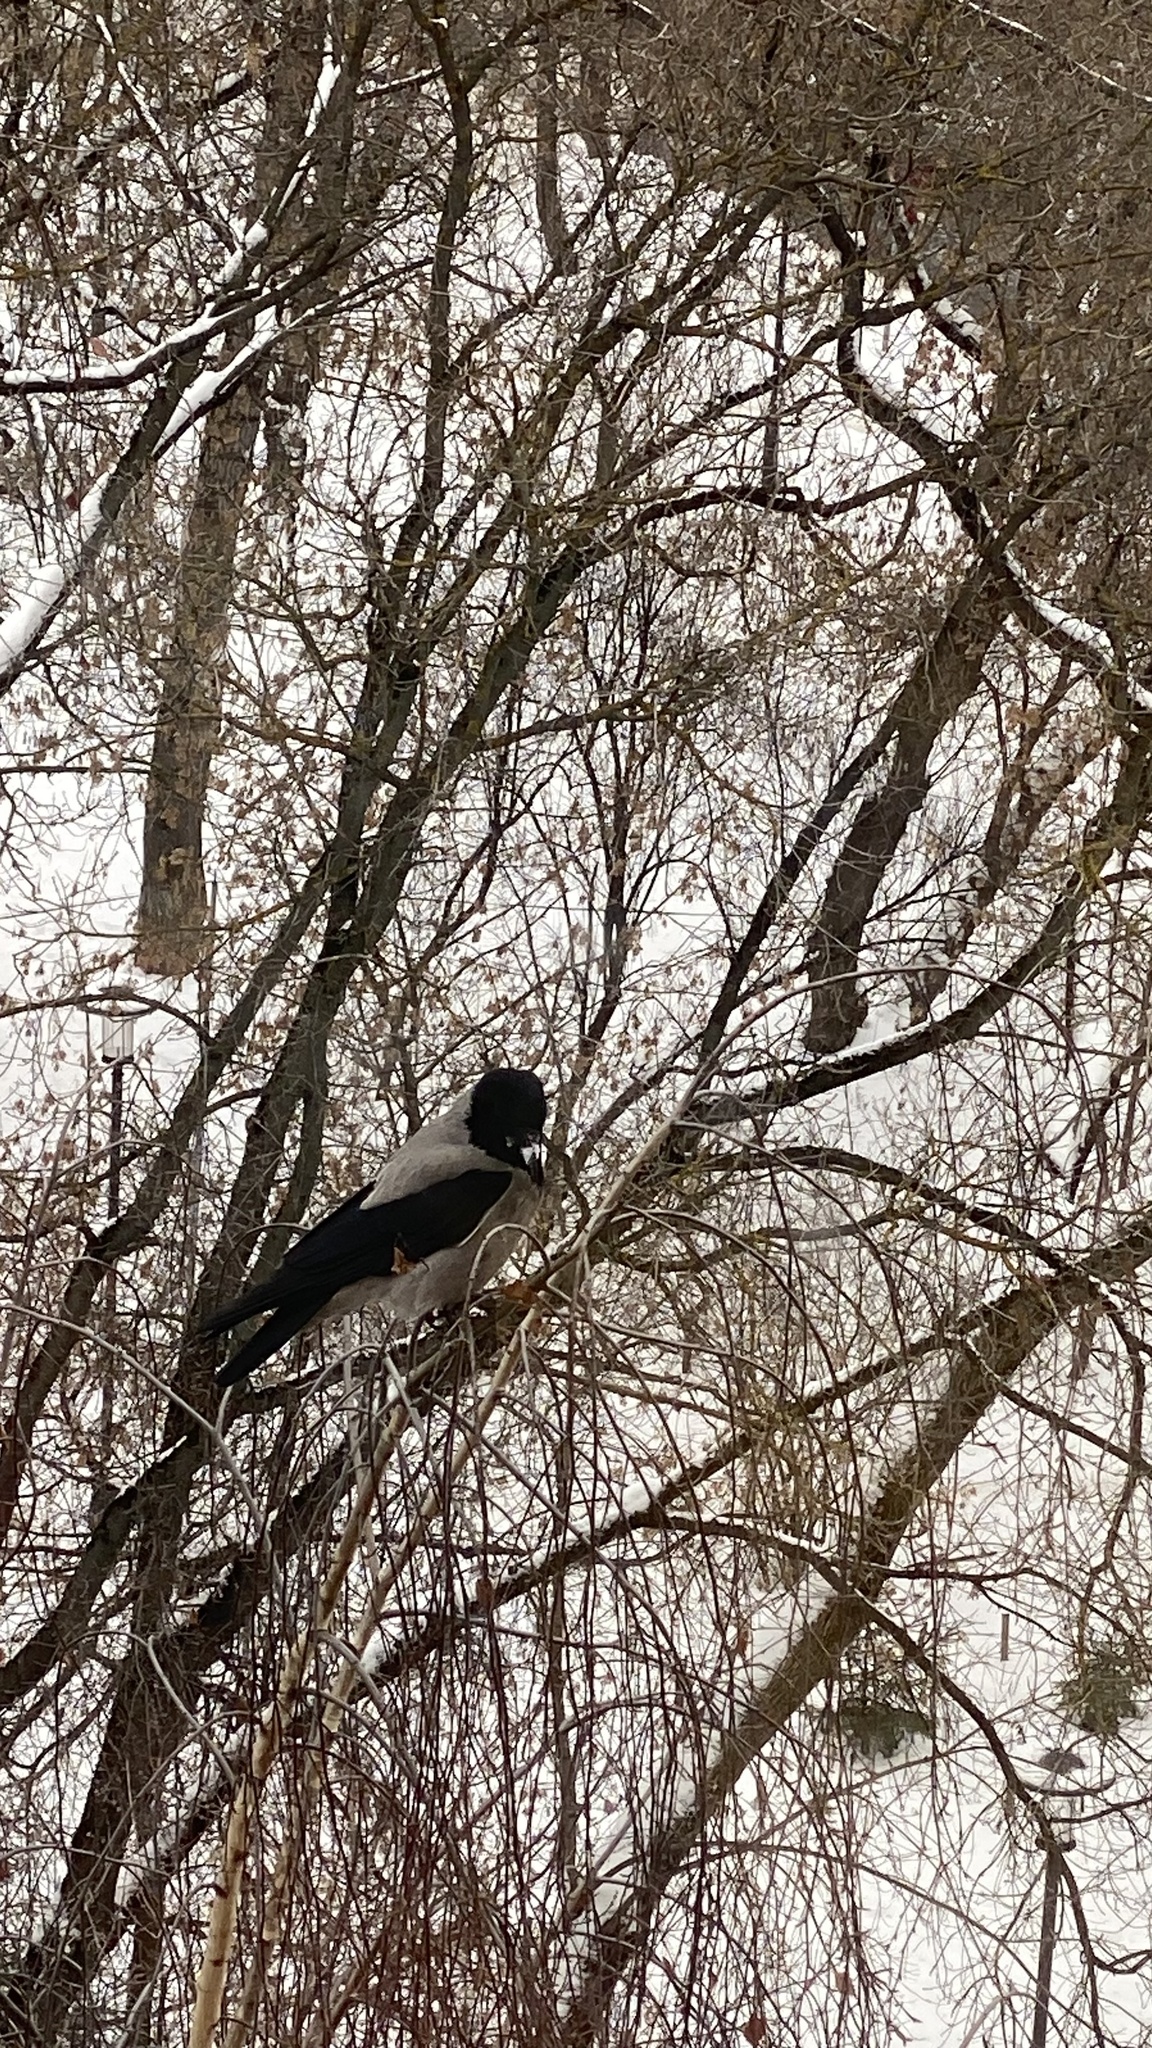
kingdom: Animalia
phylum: Chordata
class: Aves
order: Passeriformes
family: Corvidae
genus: Corvus
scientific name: Corvus cornix
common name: Hooded crow
